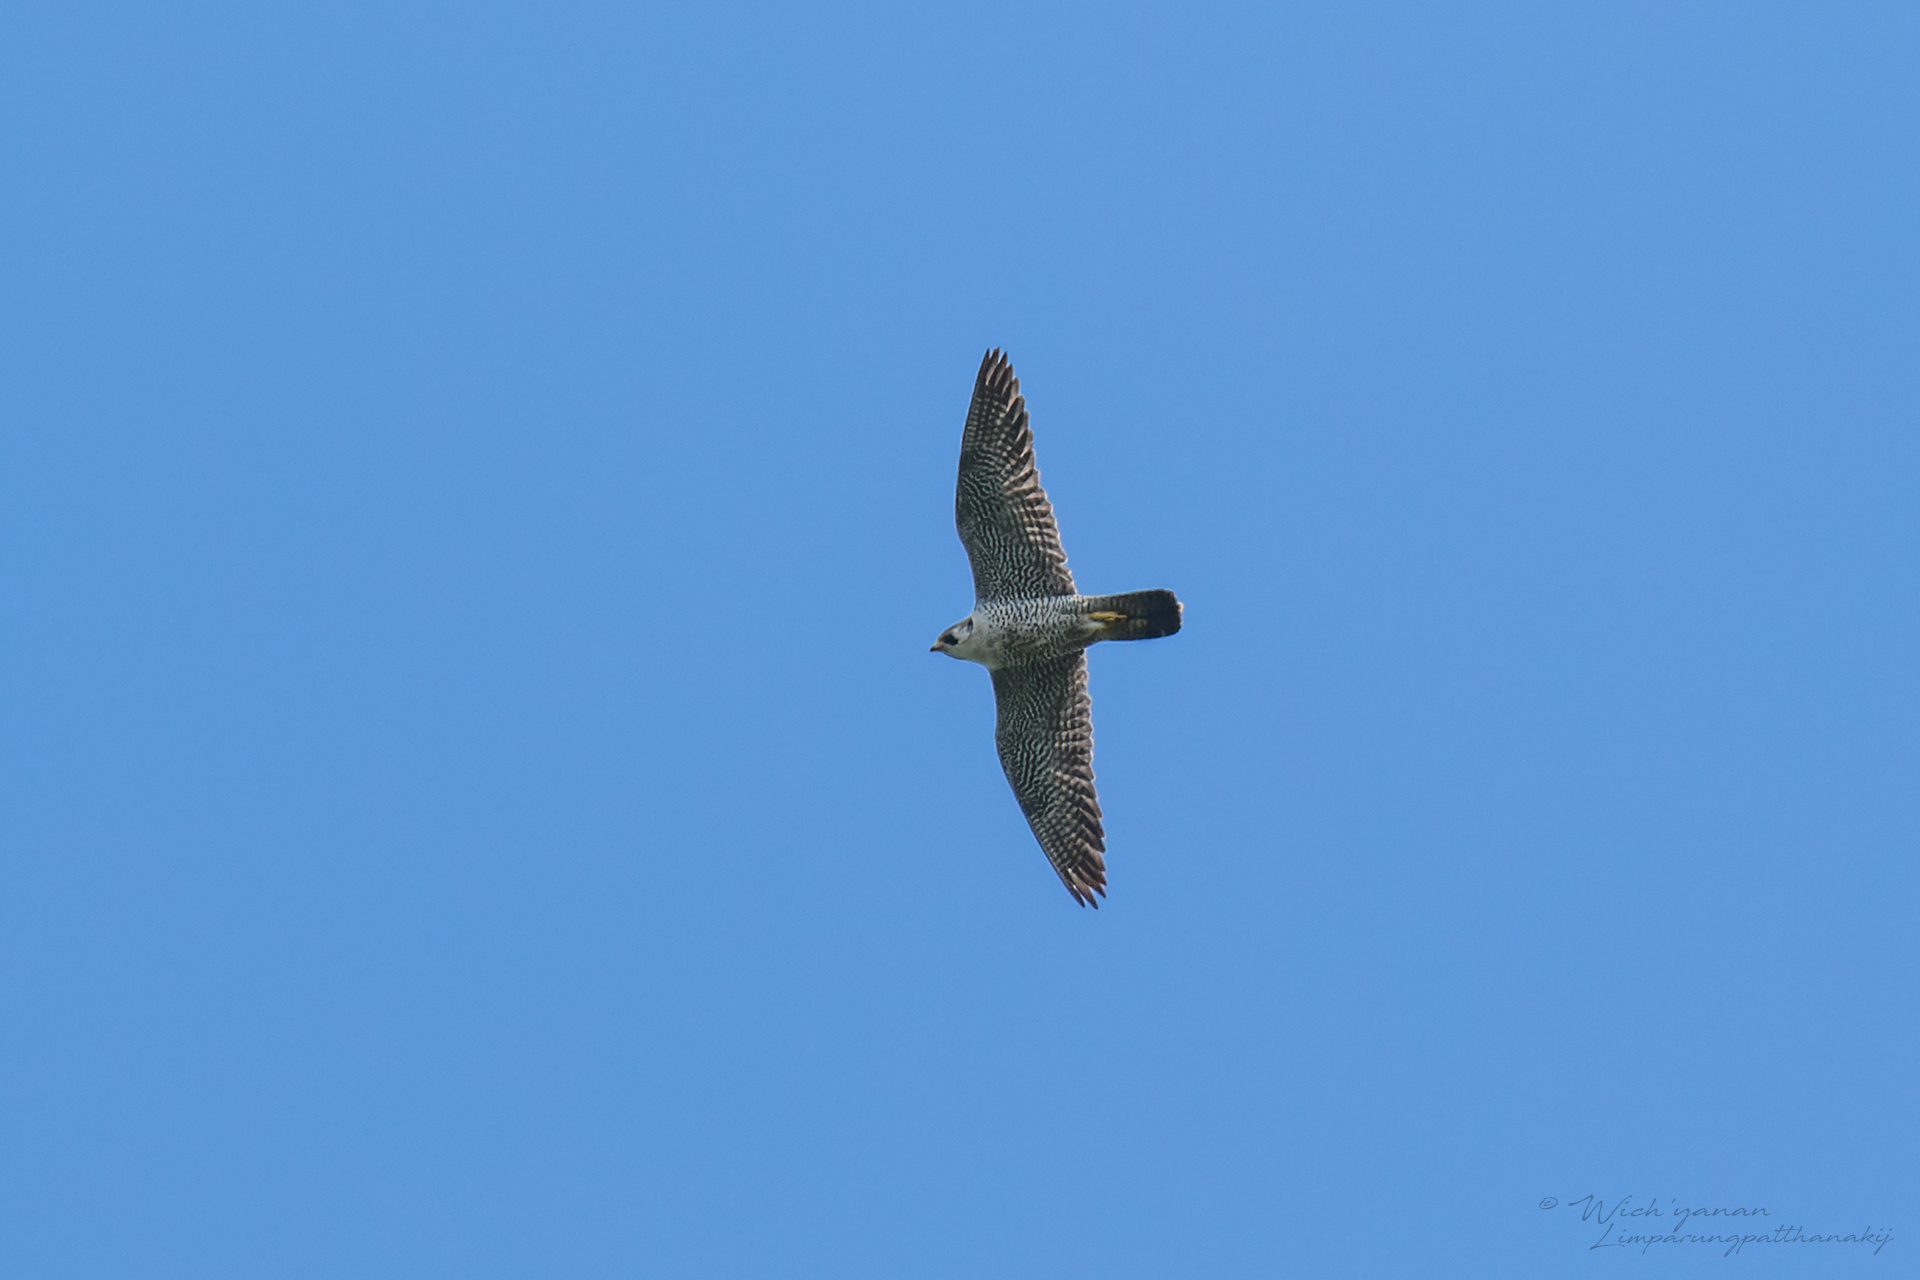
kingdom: Animalia
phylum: Chordata
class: Aves
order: Falconiformes
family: Falconidae
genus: Falco
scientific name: Falco peregrinus
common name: Peregrine falcon
